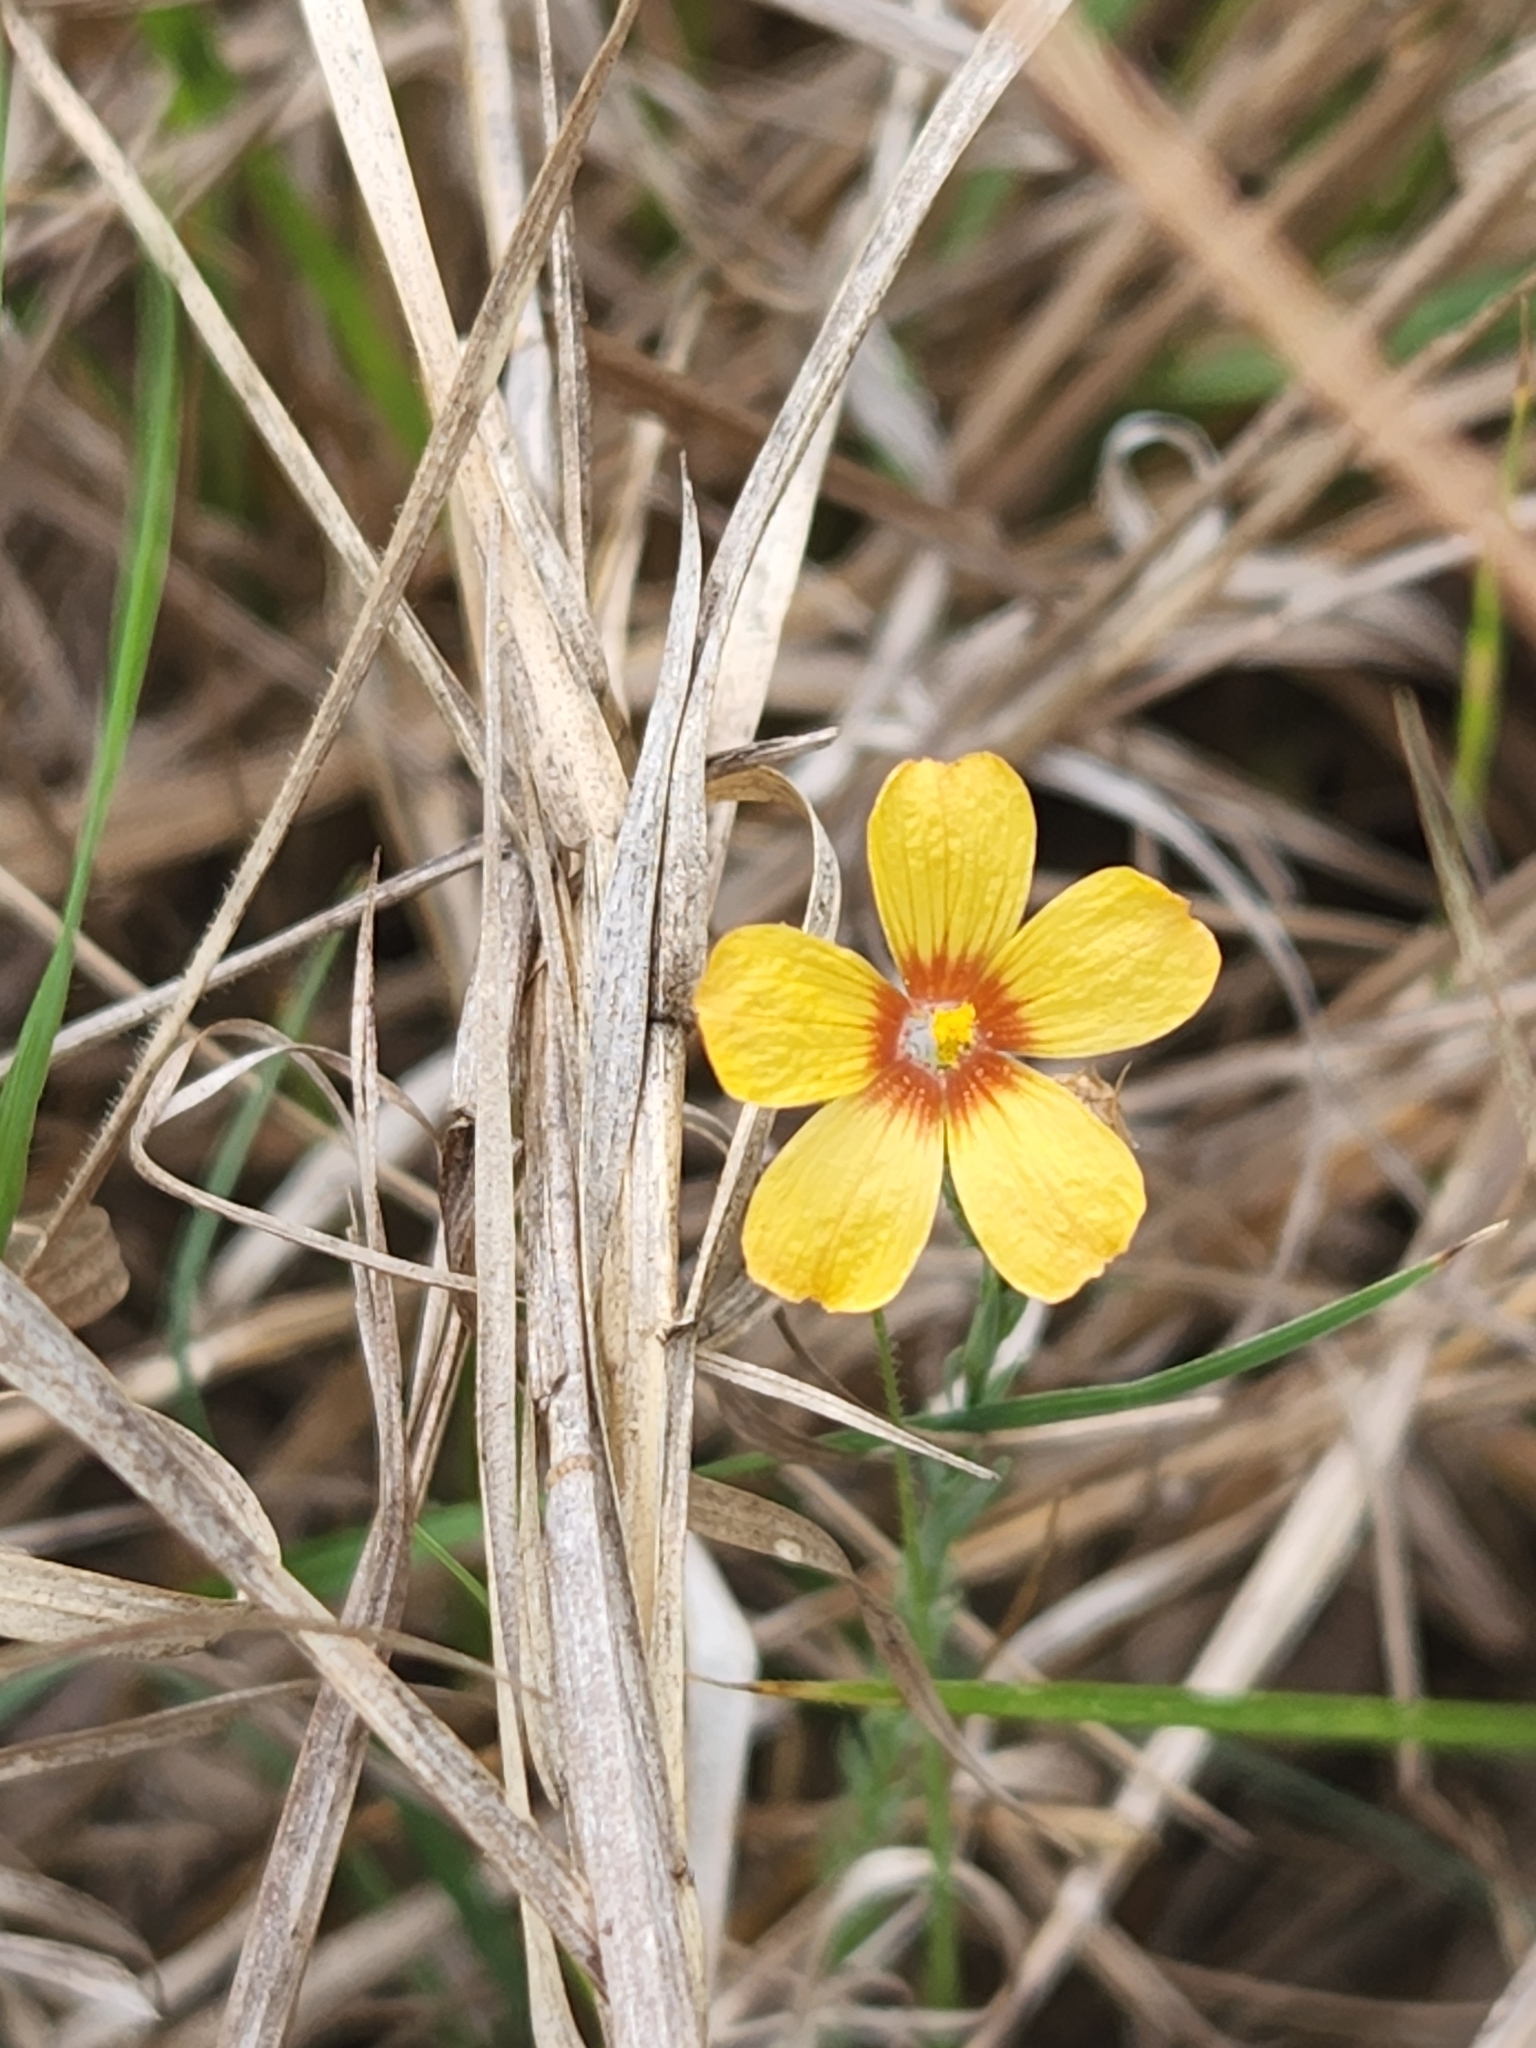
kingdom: Plantae
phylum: Tracheophyta
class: Magnoliopsida
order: Malpighiales
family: Linaceae
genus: Linum
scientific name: Linum berlandieri
